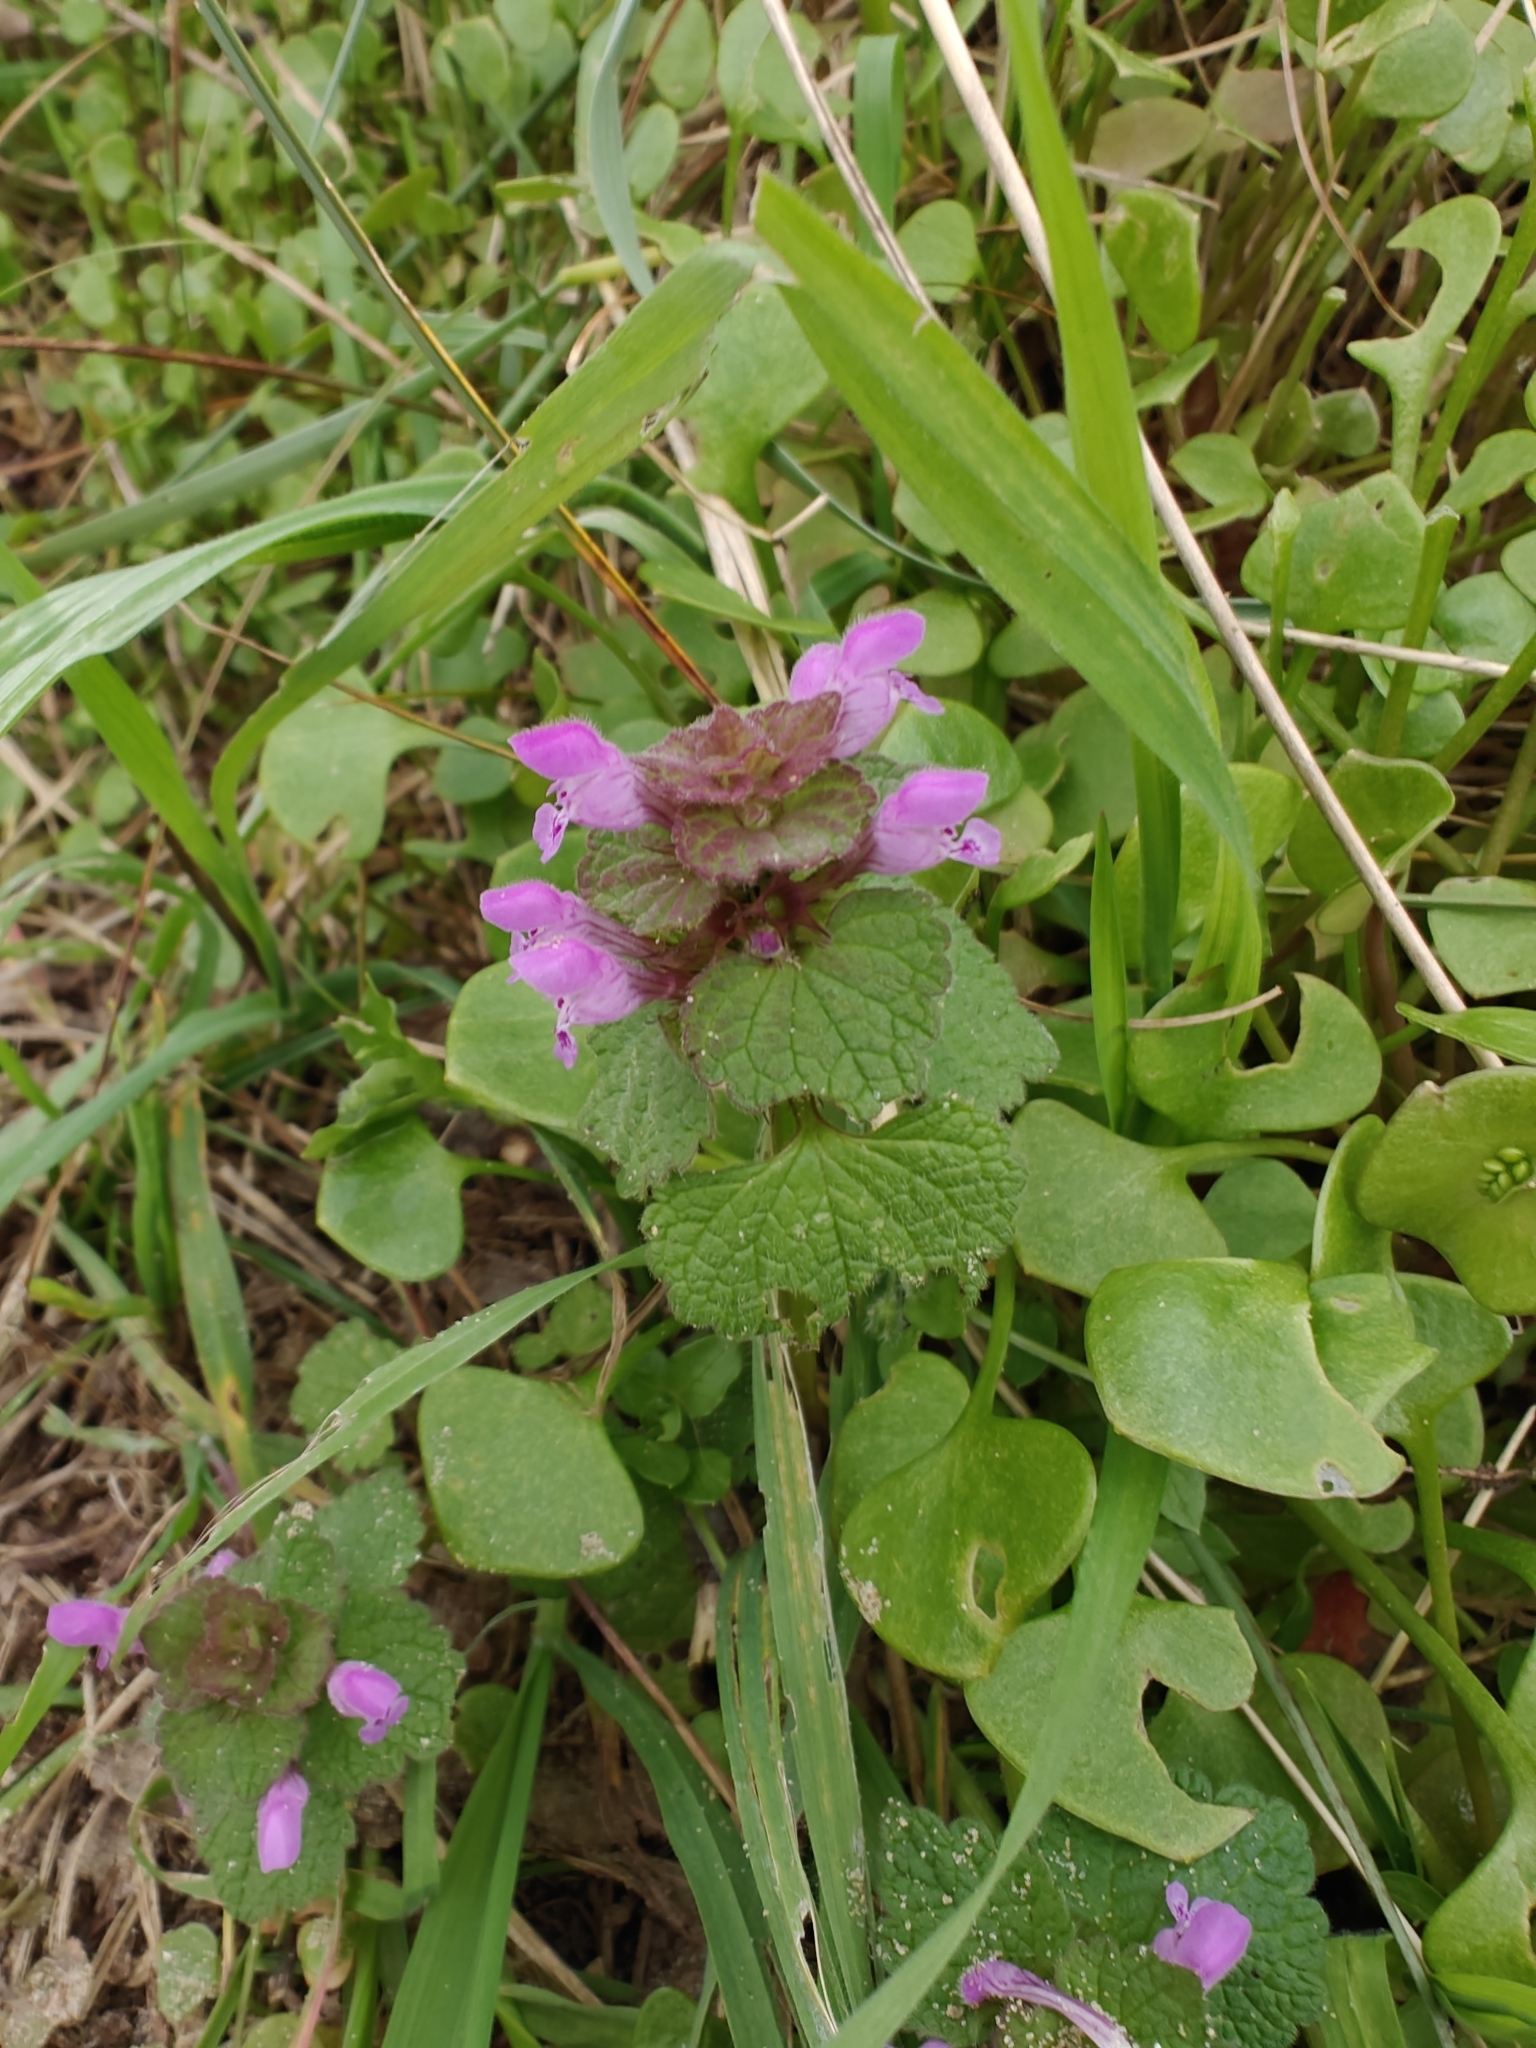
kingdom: Plantae
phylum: Tracheophyta
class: Magnoliopsida
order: Lamiales
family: Lamiaceae
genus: Lamium
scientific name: Lamium purpureum
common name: Red dead-nettle
